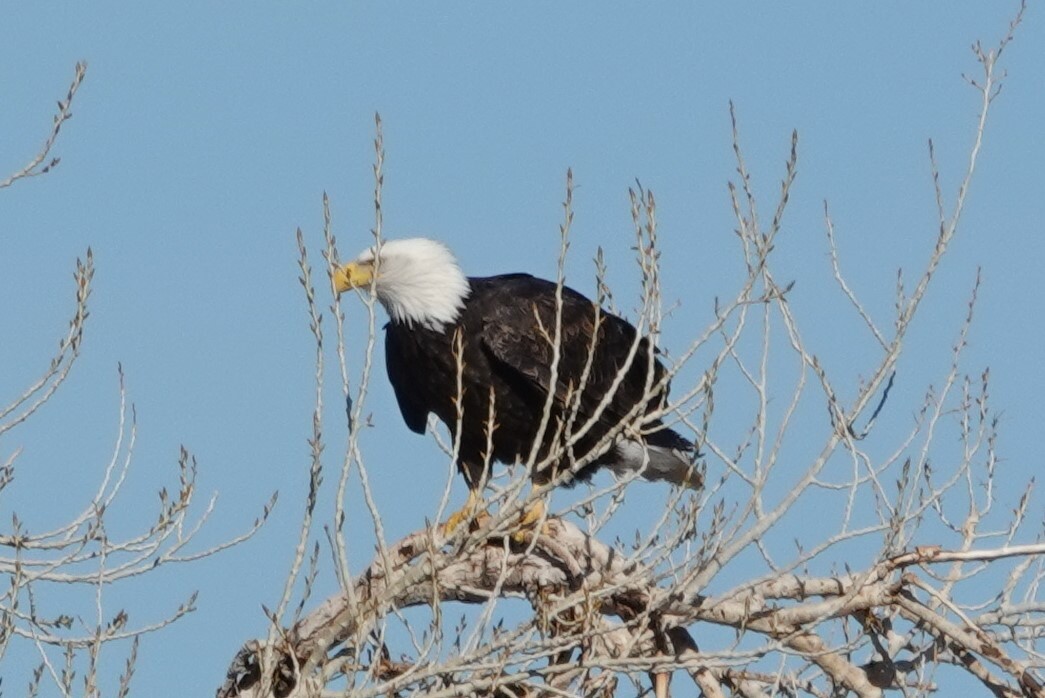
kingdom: Animalia
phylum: Chordata
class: Aves
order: Accipitriformes
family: Accipitridae
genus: Haliaeetus
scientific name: Haliaeetus leucocephalus
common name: Bald eagle
